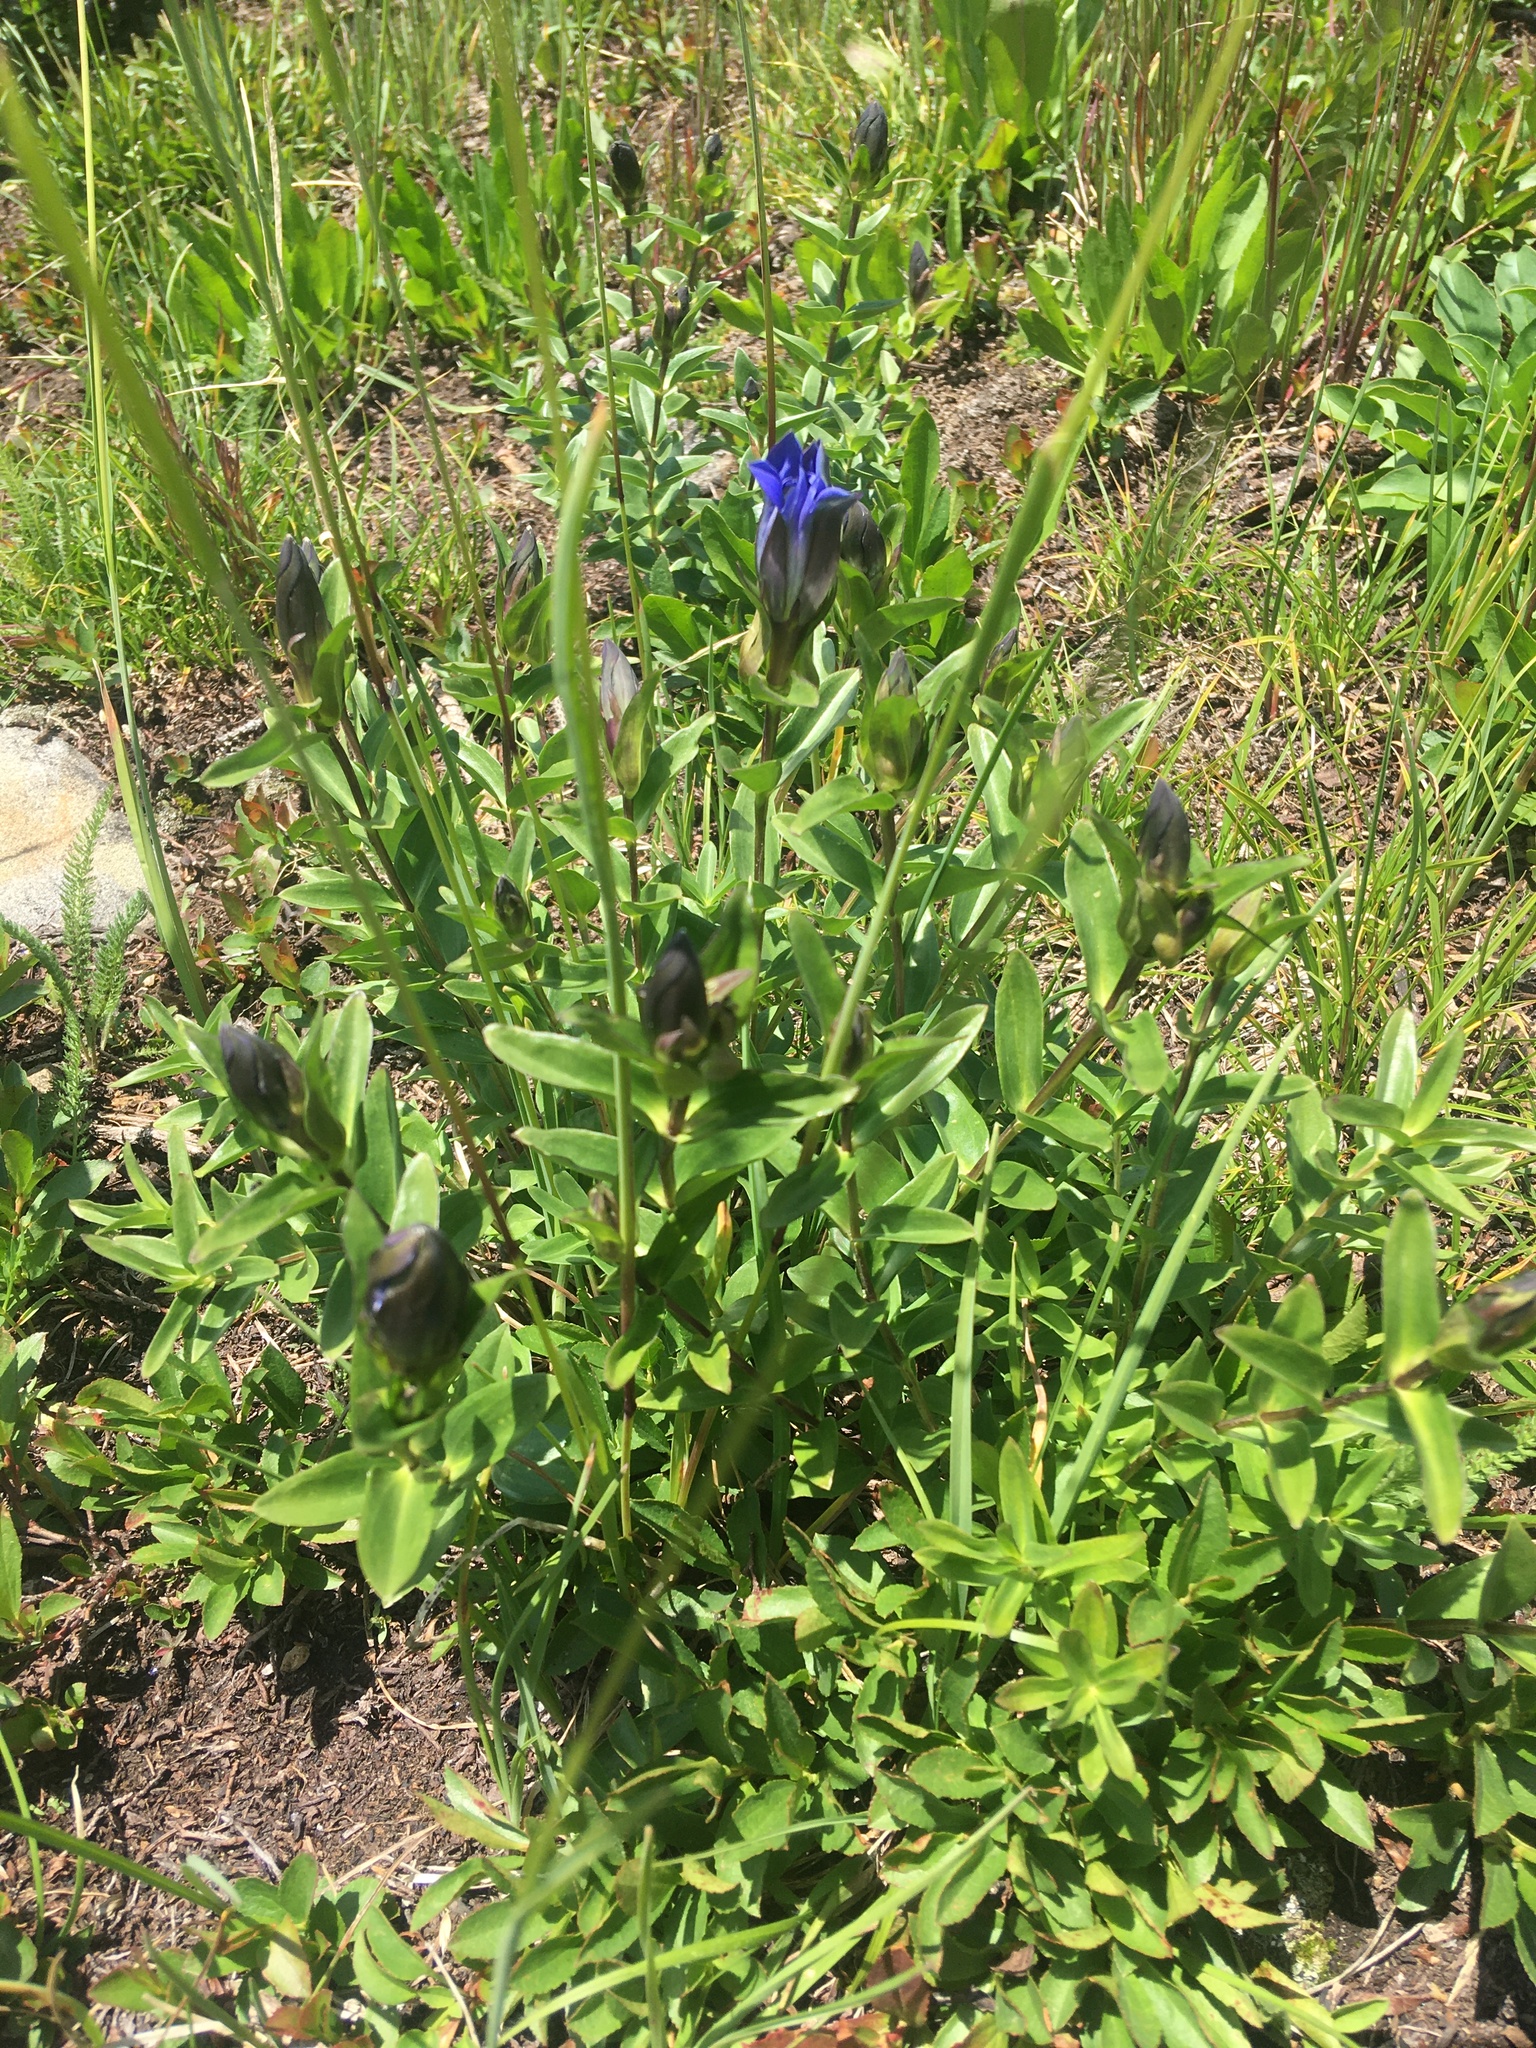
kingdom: Plantae
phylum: Tracheophyta
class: Magnoliopsida
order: Gentianales
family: Gentianaceae
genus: Gentiana
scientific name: Gentiana parryi
